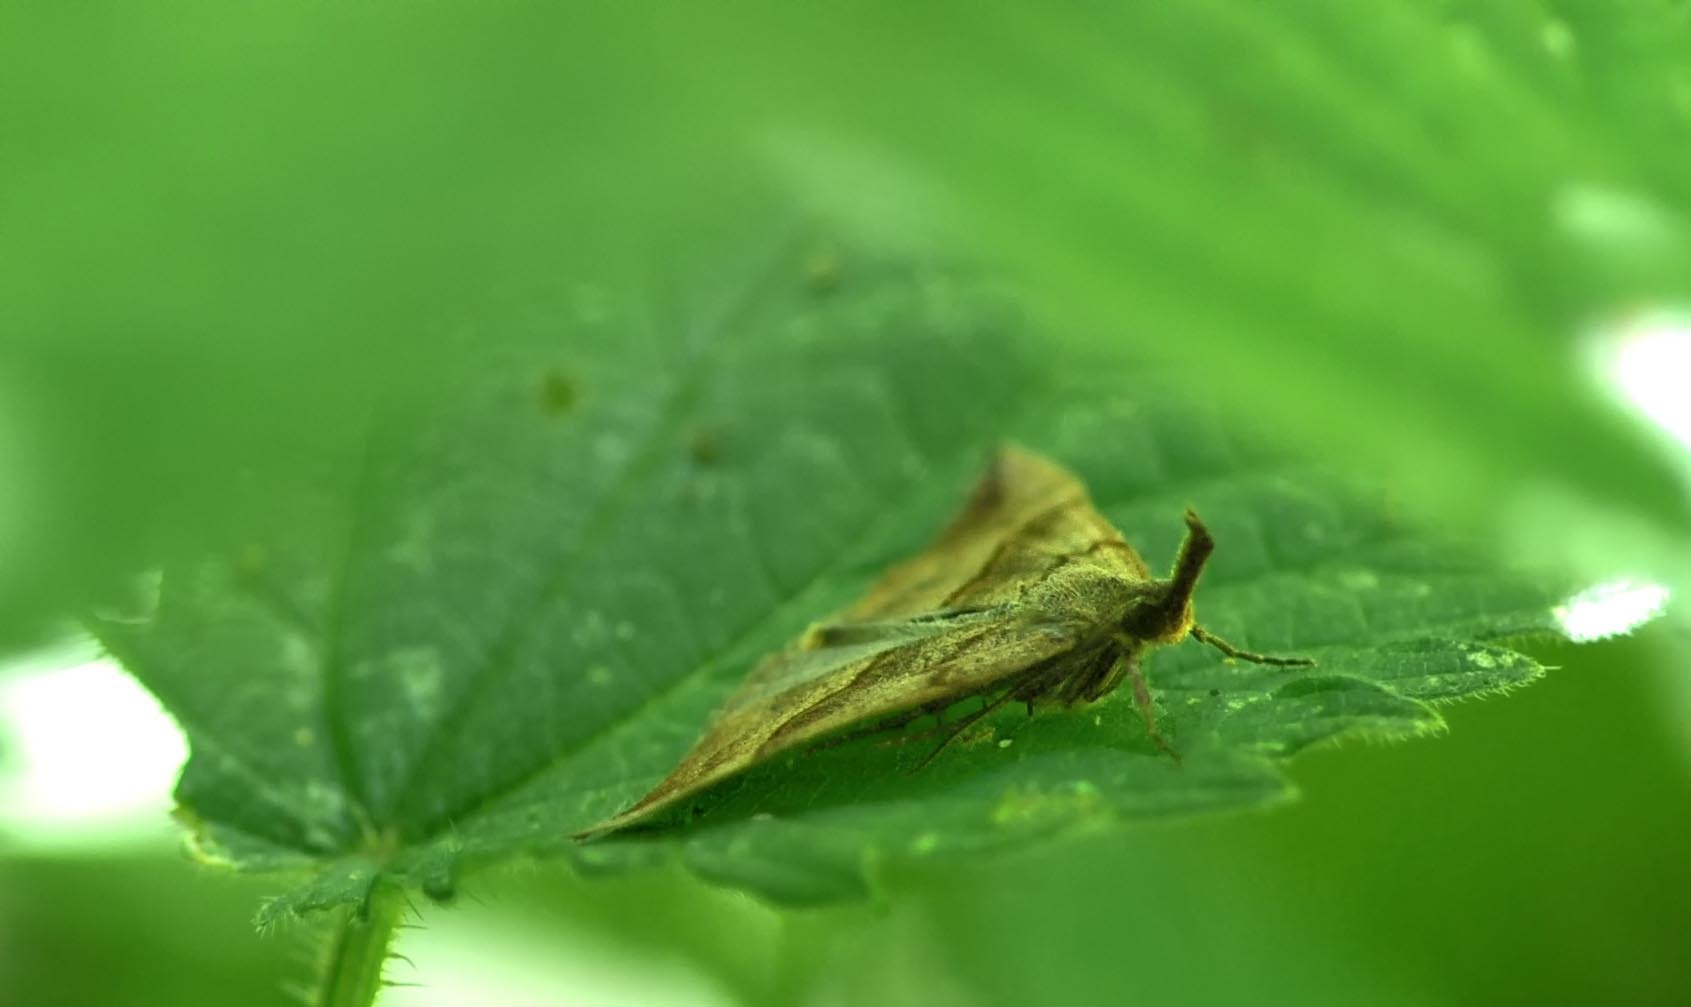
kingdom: Animalia
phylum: Arthropoda
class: Insecta
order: Lepidoptera
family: Erebidae
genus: Hypena
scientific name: Hypena proboscidalis
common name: Snout
